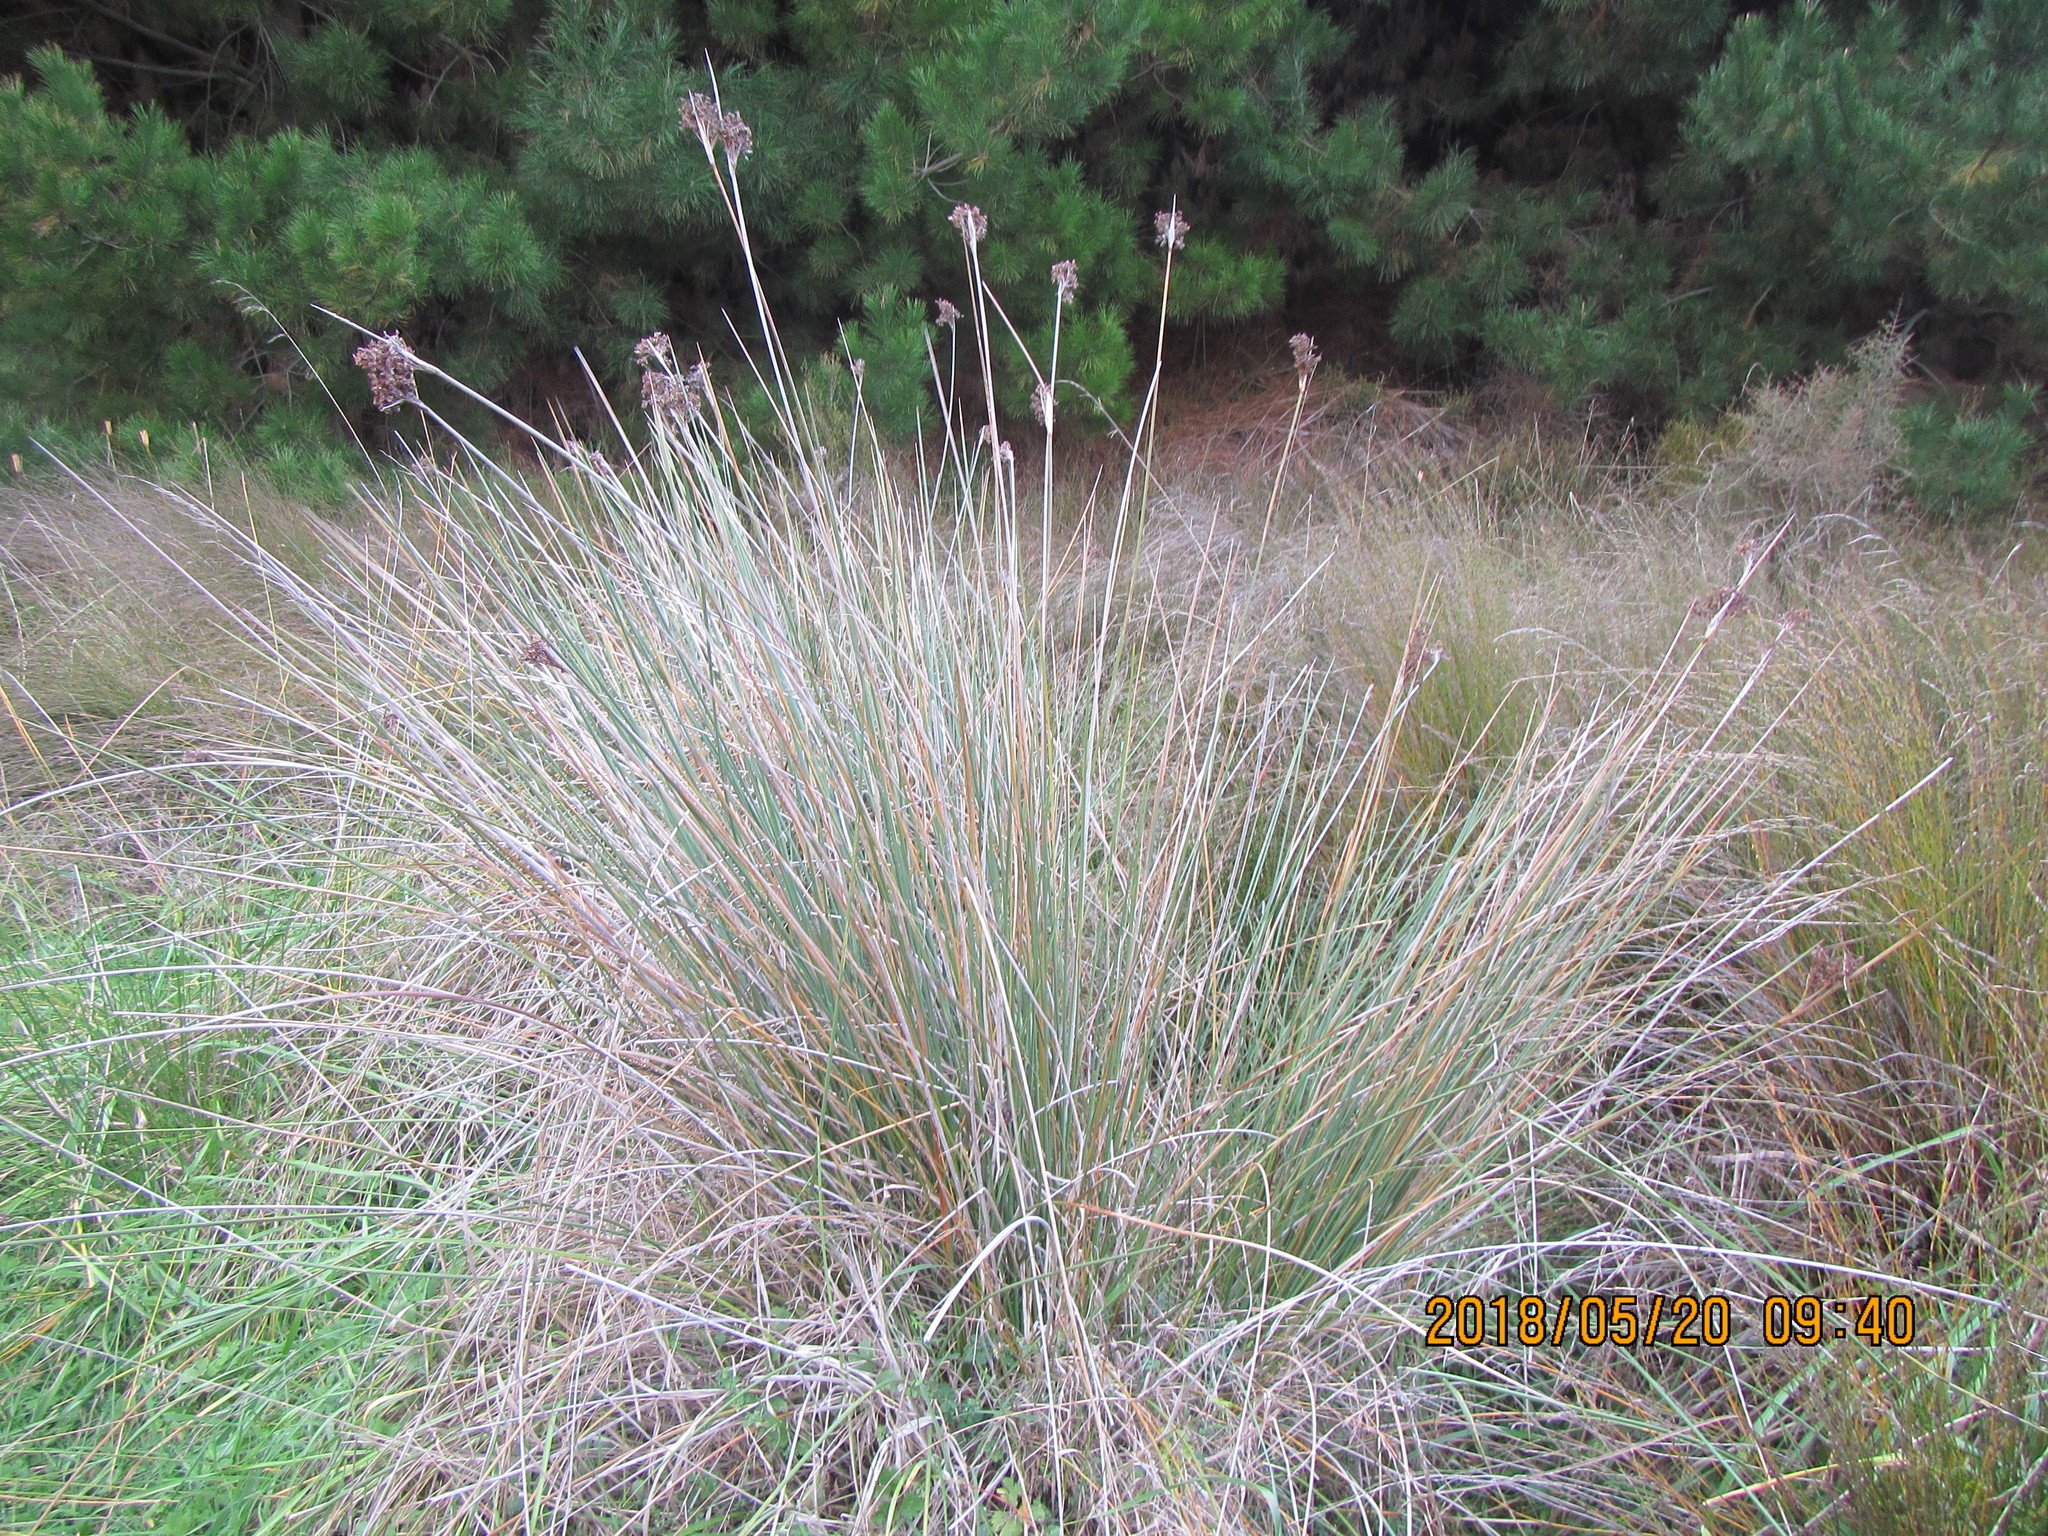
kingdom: Plantae
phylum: Tracheophyta
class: Liliopsida
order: Poales
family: Juncaceae
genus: Juncus
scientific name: Juncus acutus
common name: Sharp rush
